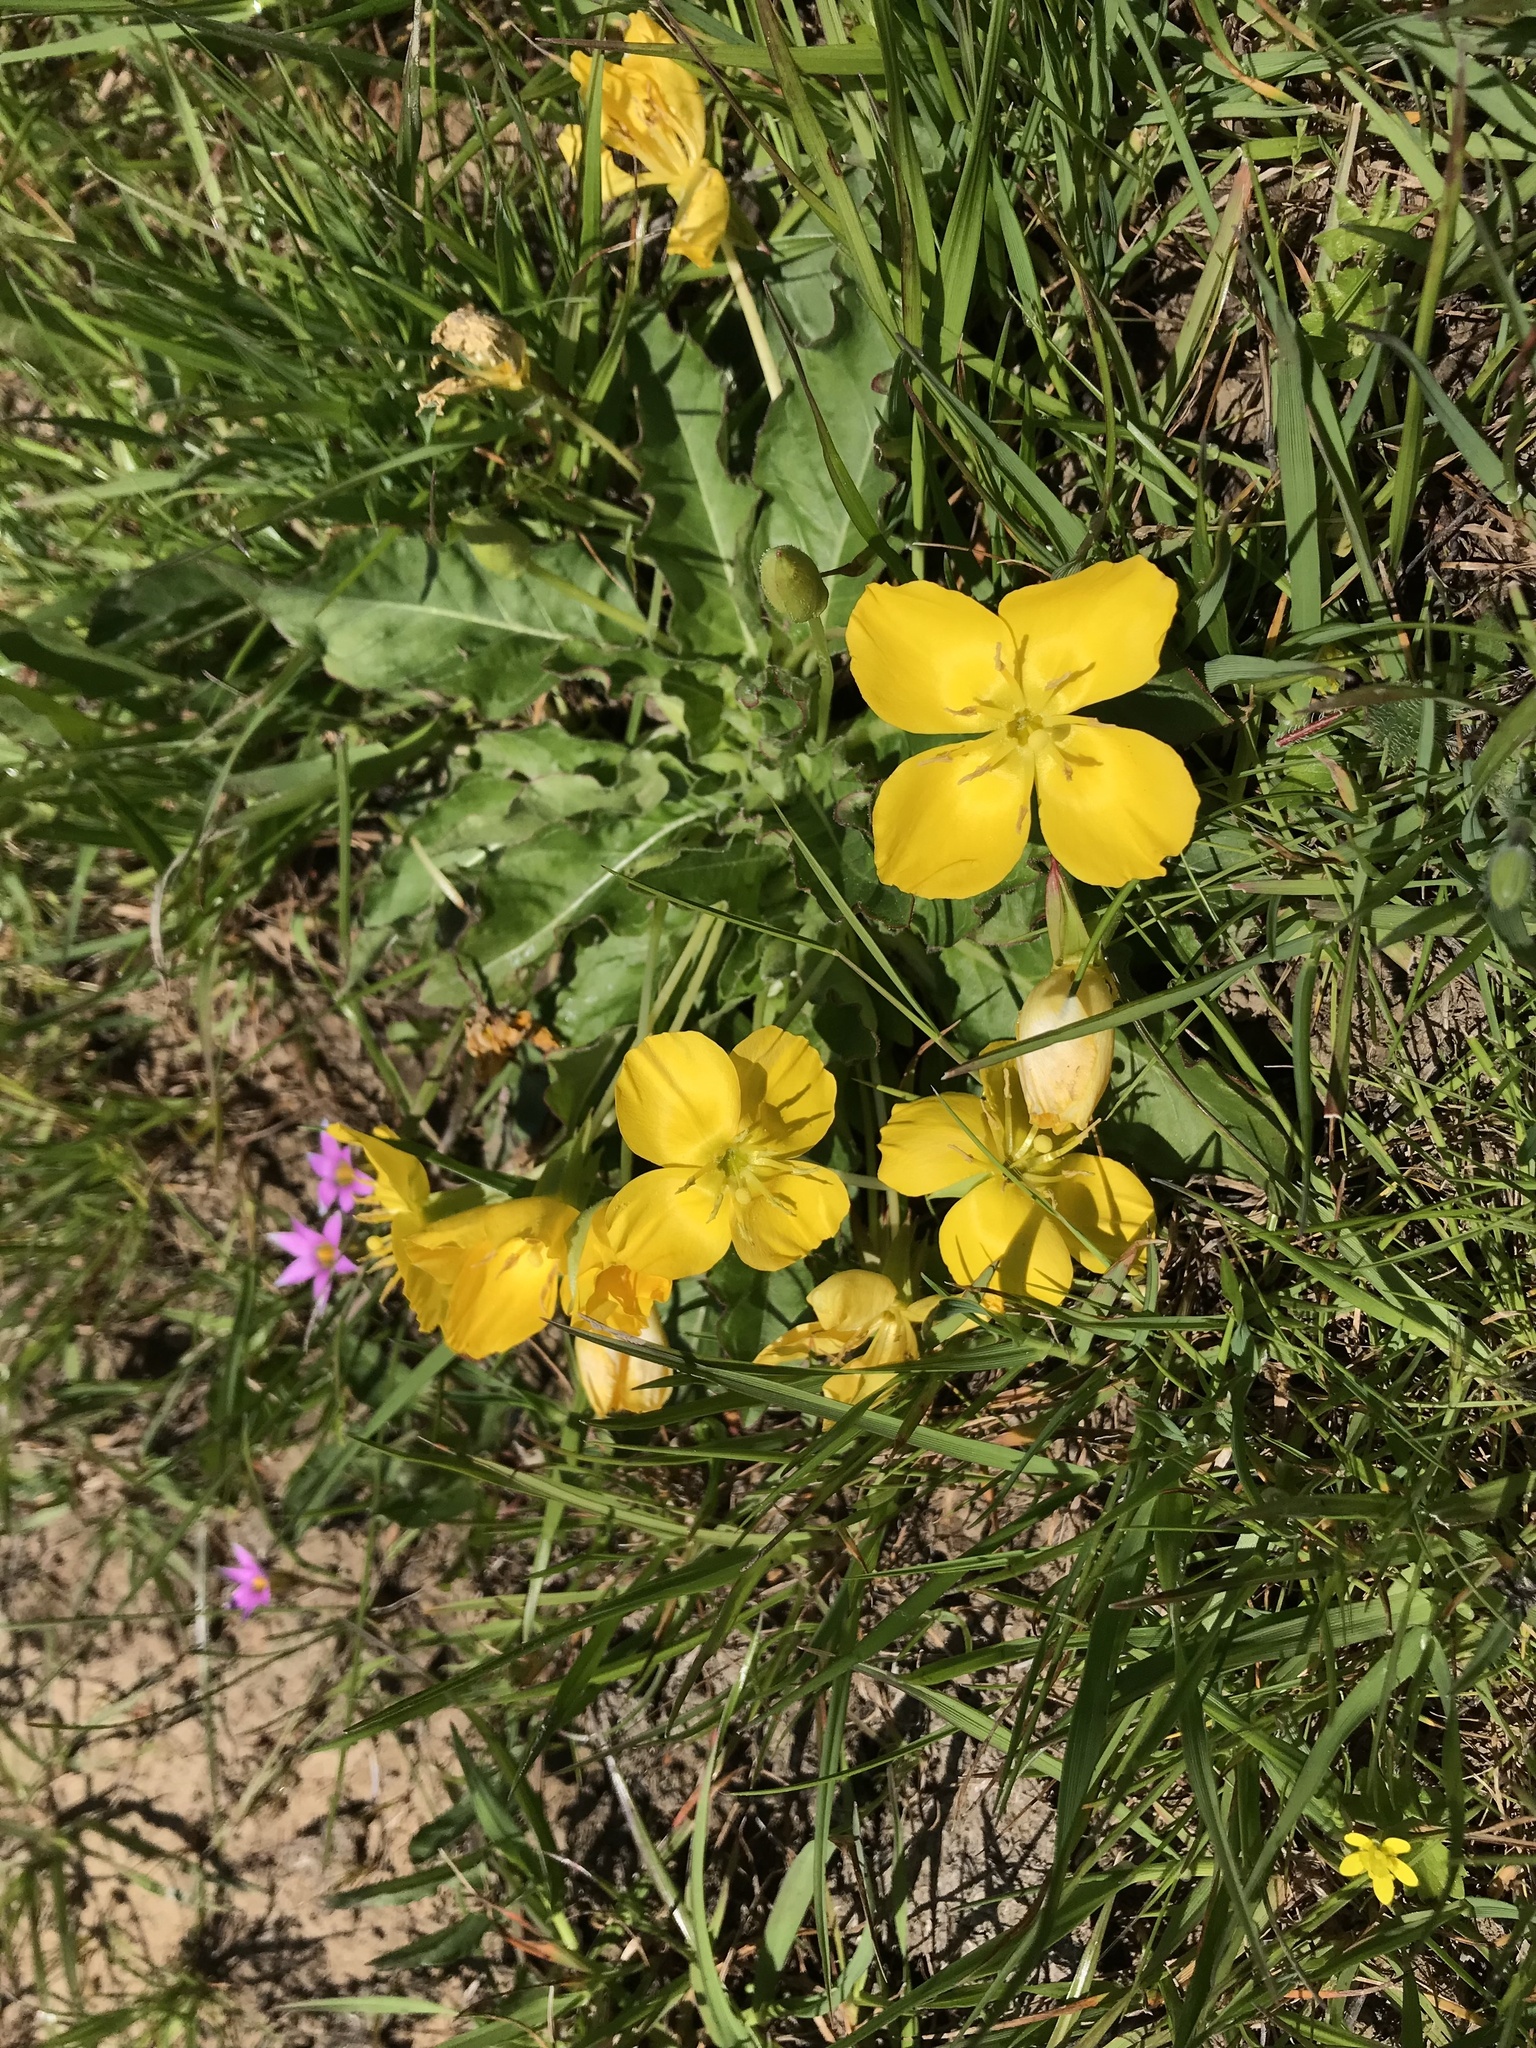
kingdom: Plantae
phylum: Tracheophyta
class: Magnoliopsida
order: Myrtales
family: Onagraceae
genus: Taraxia
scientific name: Taraxia ovata
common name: Goldeneggs
